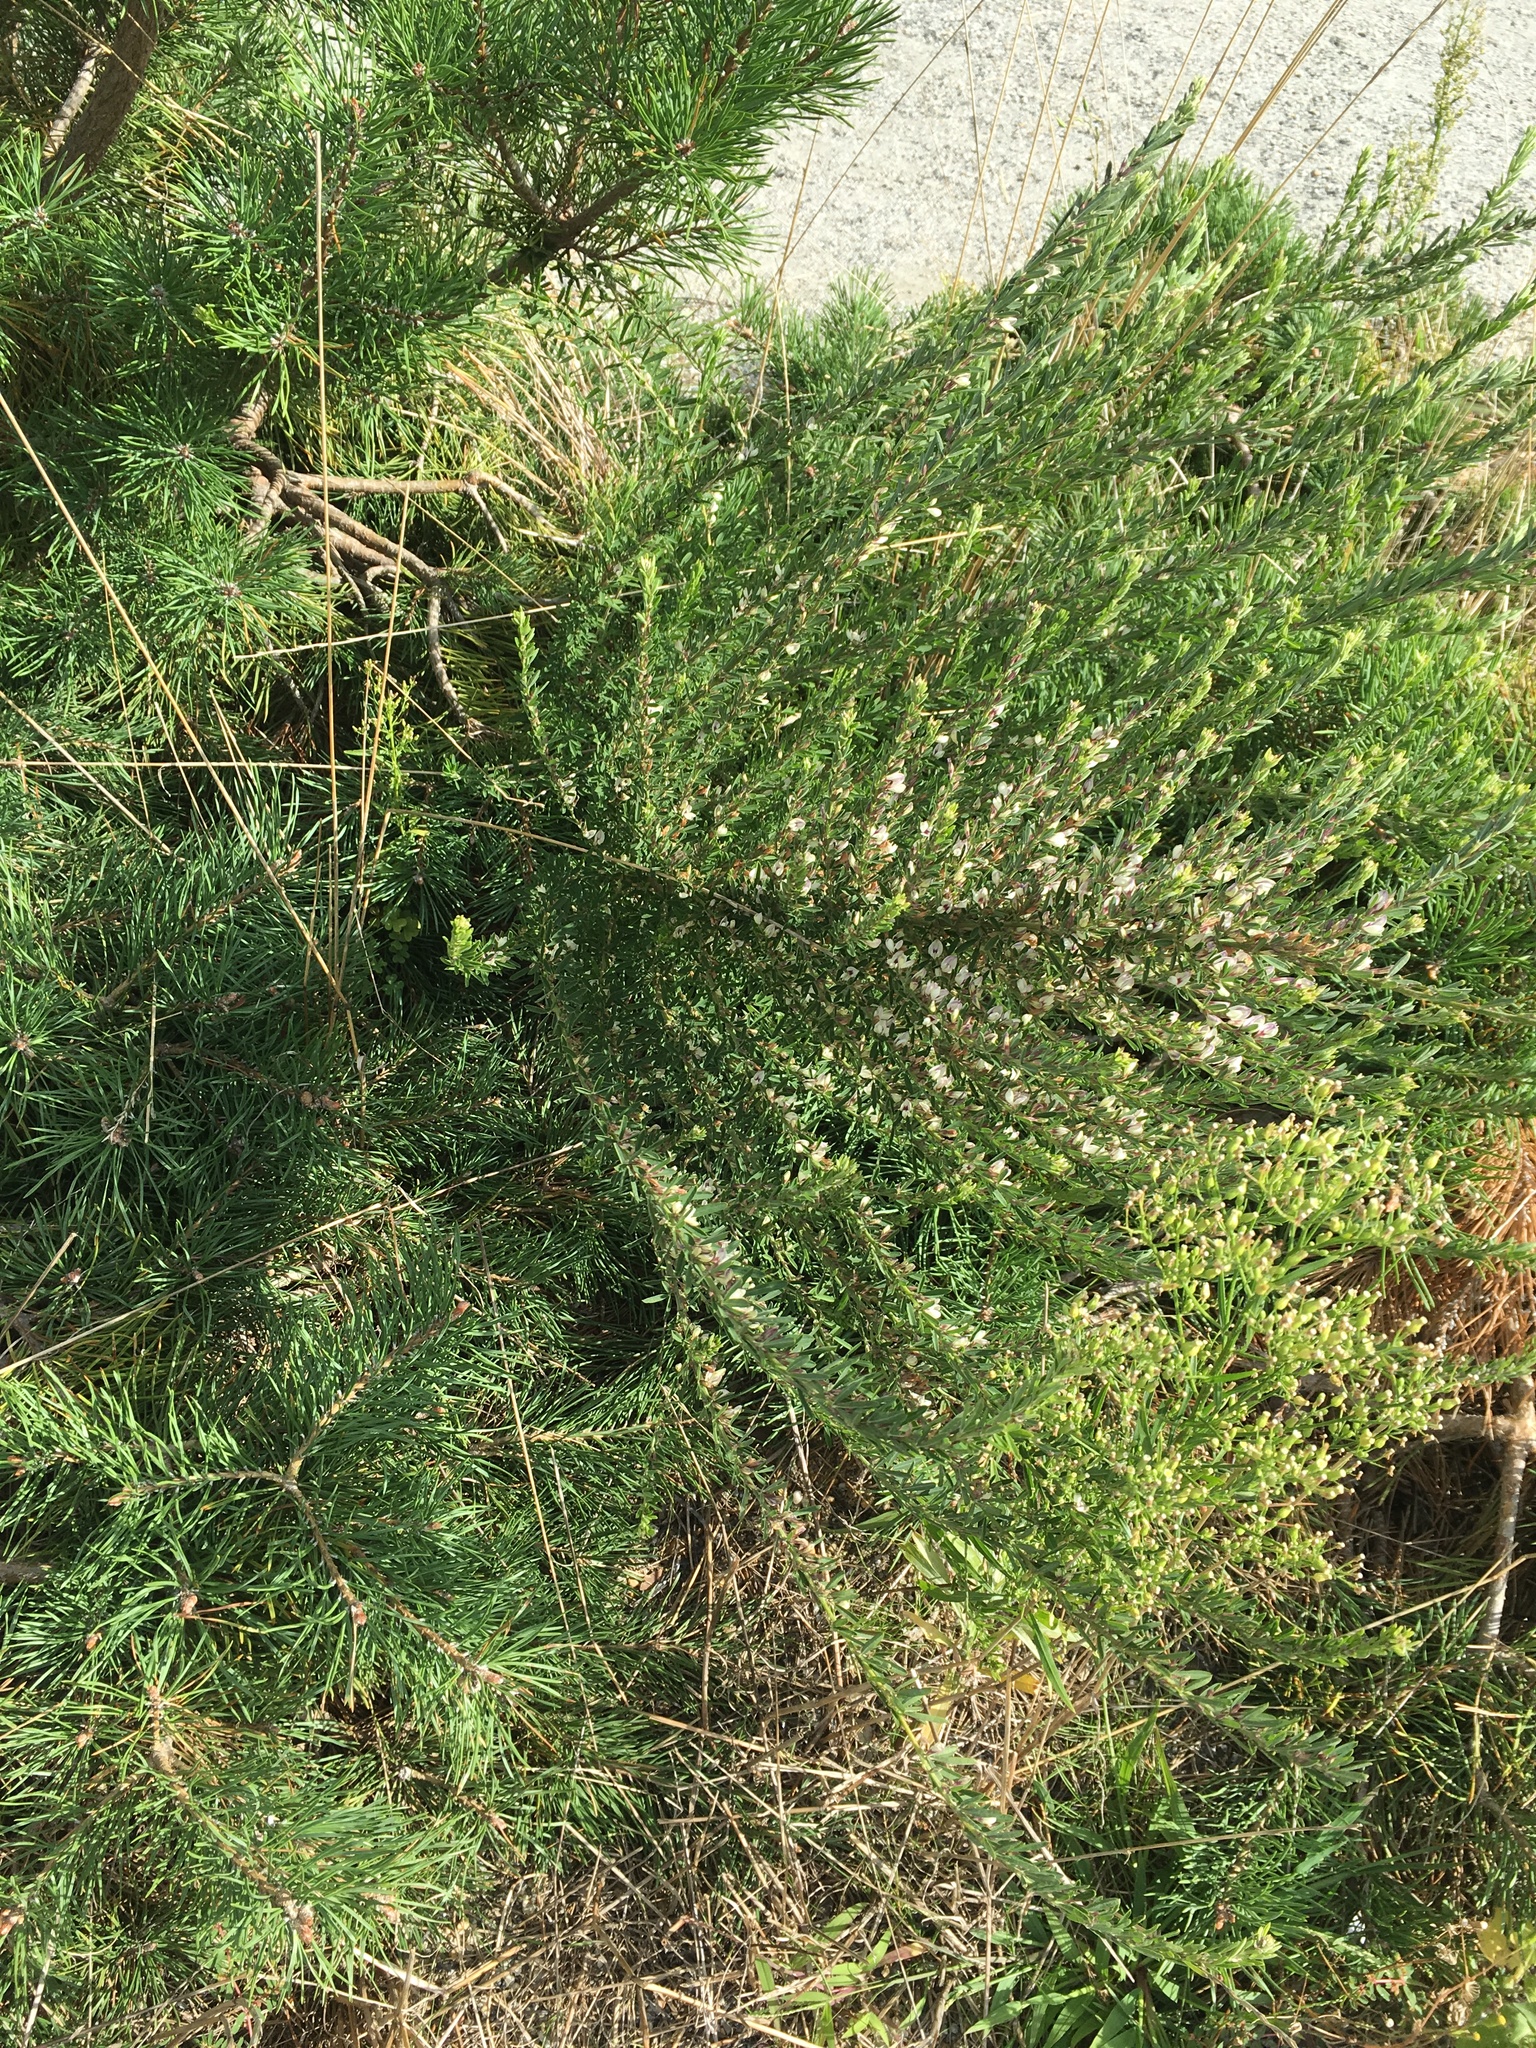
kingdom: Plantae
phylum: Tracheophyta
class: Magnoliopsida
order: Fabales
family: Fabaceae
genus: Lespedeza
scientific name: Lespedeza cuneata
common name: Chinese bush-clover
